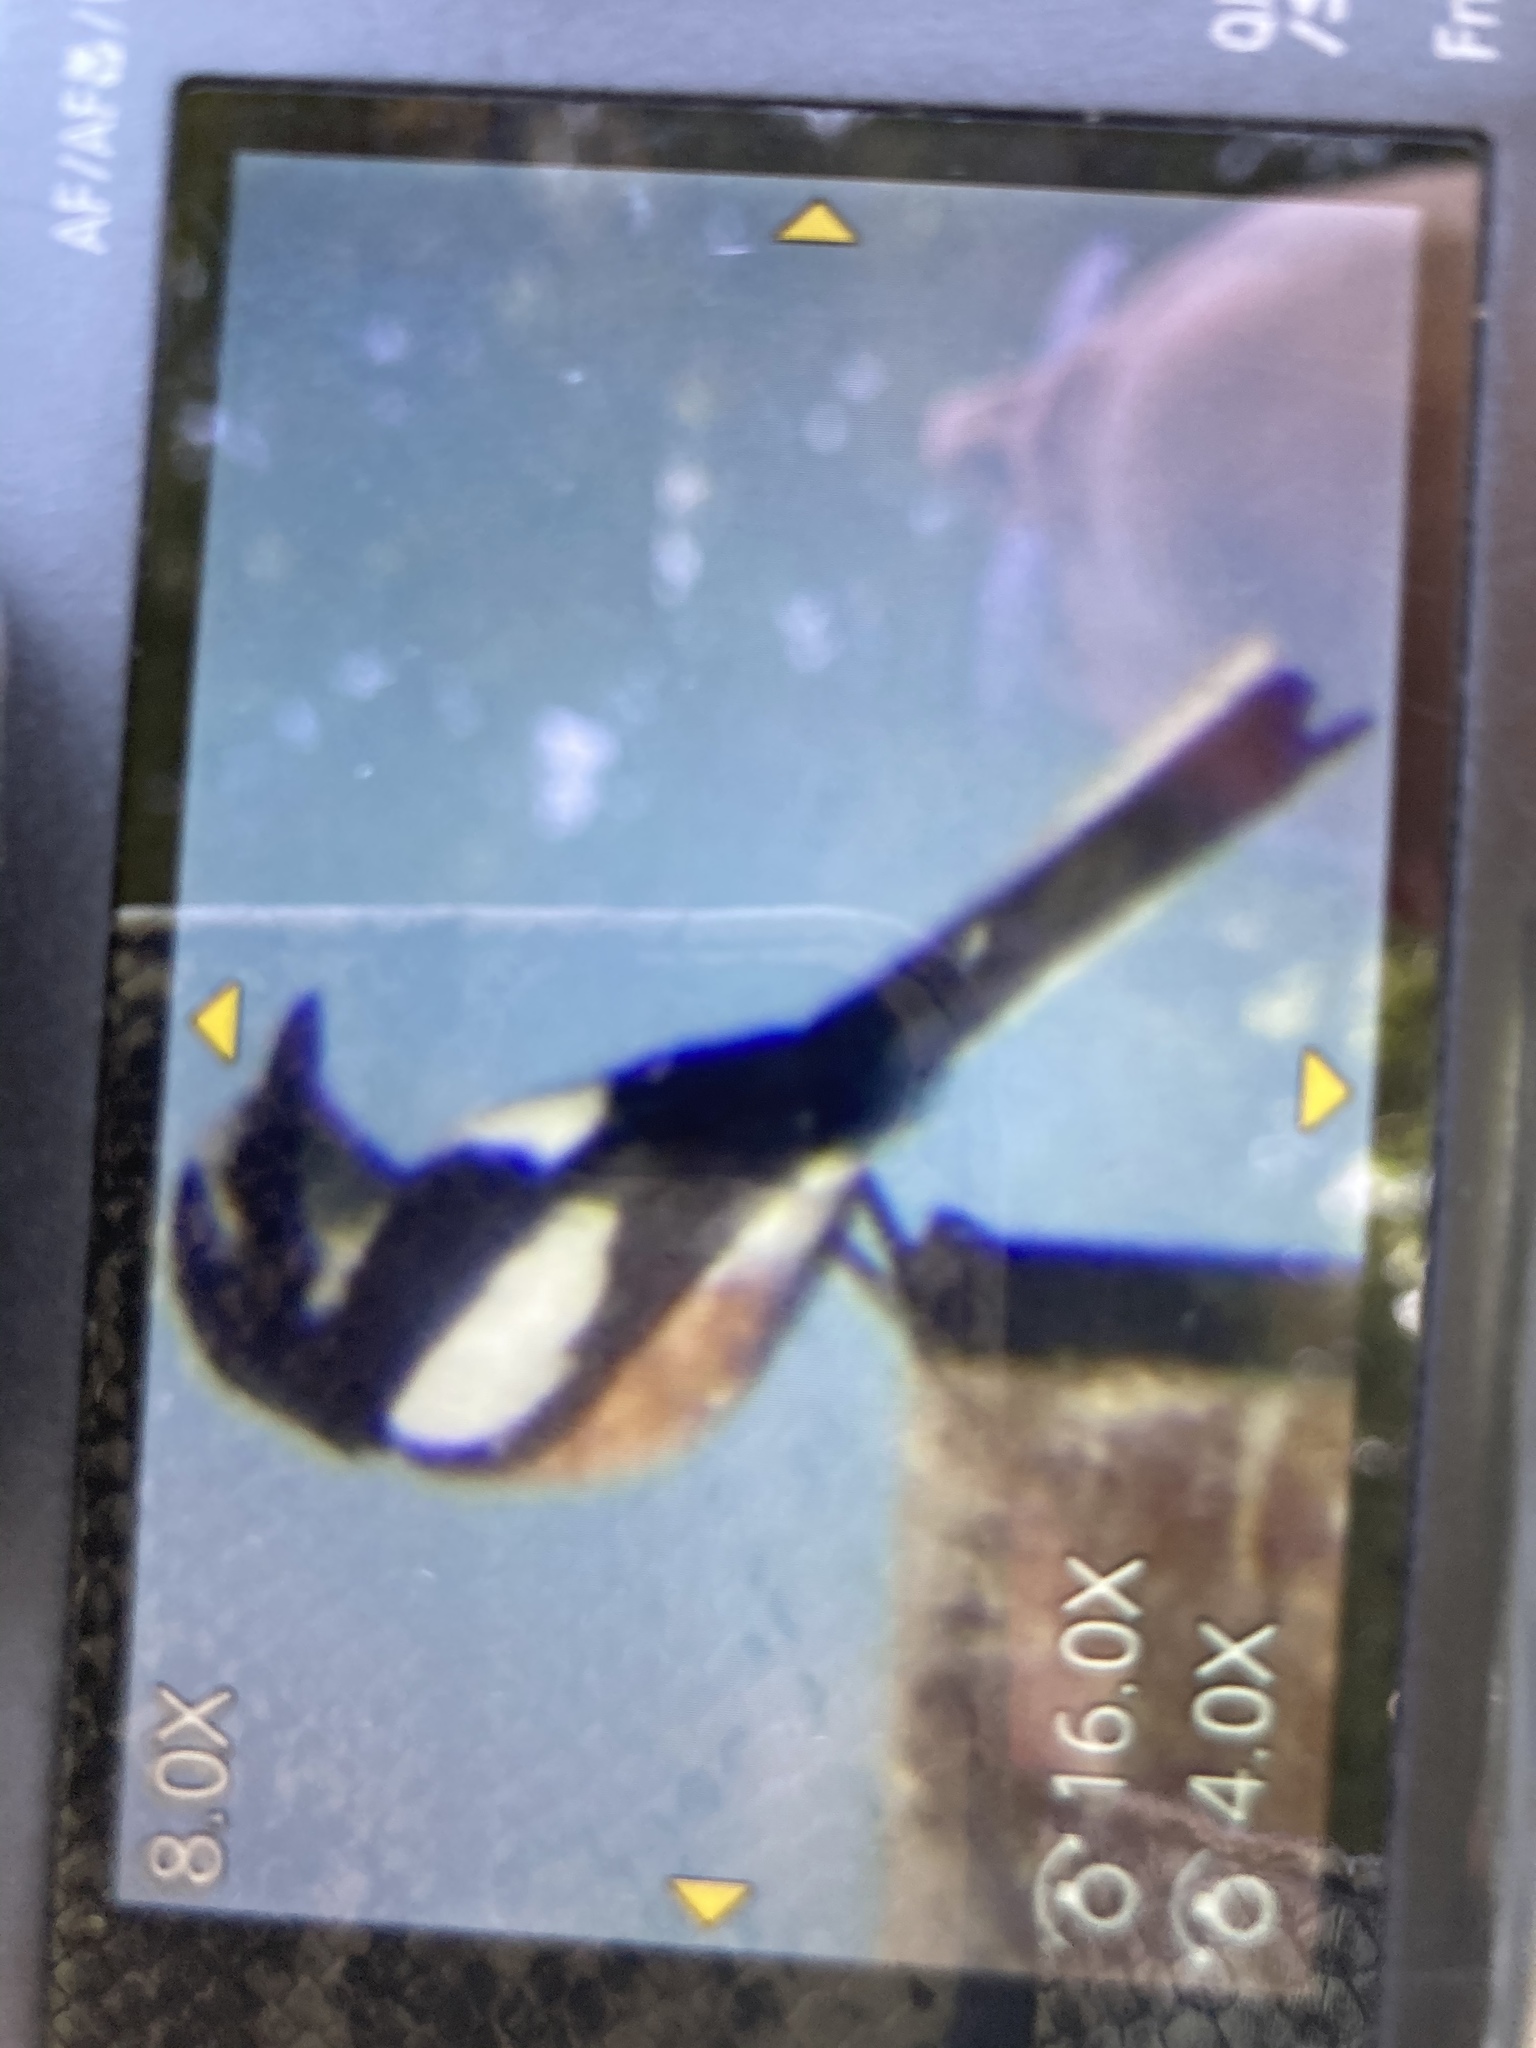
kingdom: Animalia
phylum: Chordata
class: Aves
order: Passeriformes
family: Laniidae
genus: Lanius
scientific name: Lanius nubicus
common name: Masked shrike
